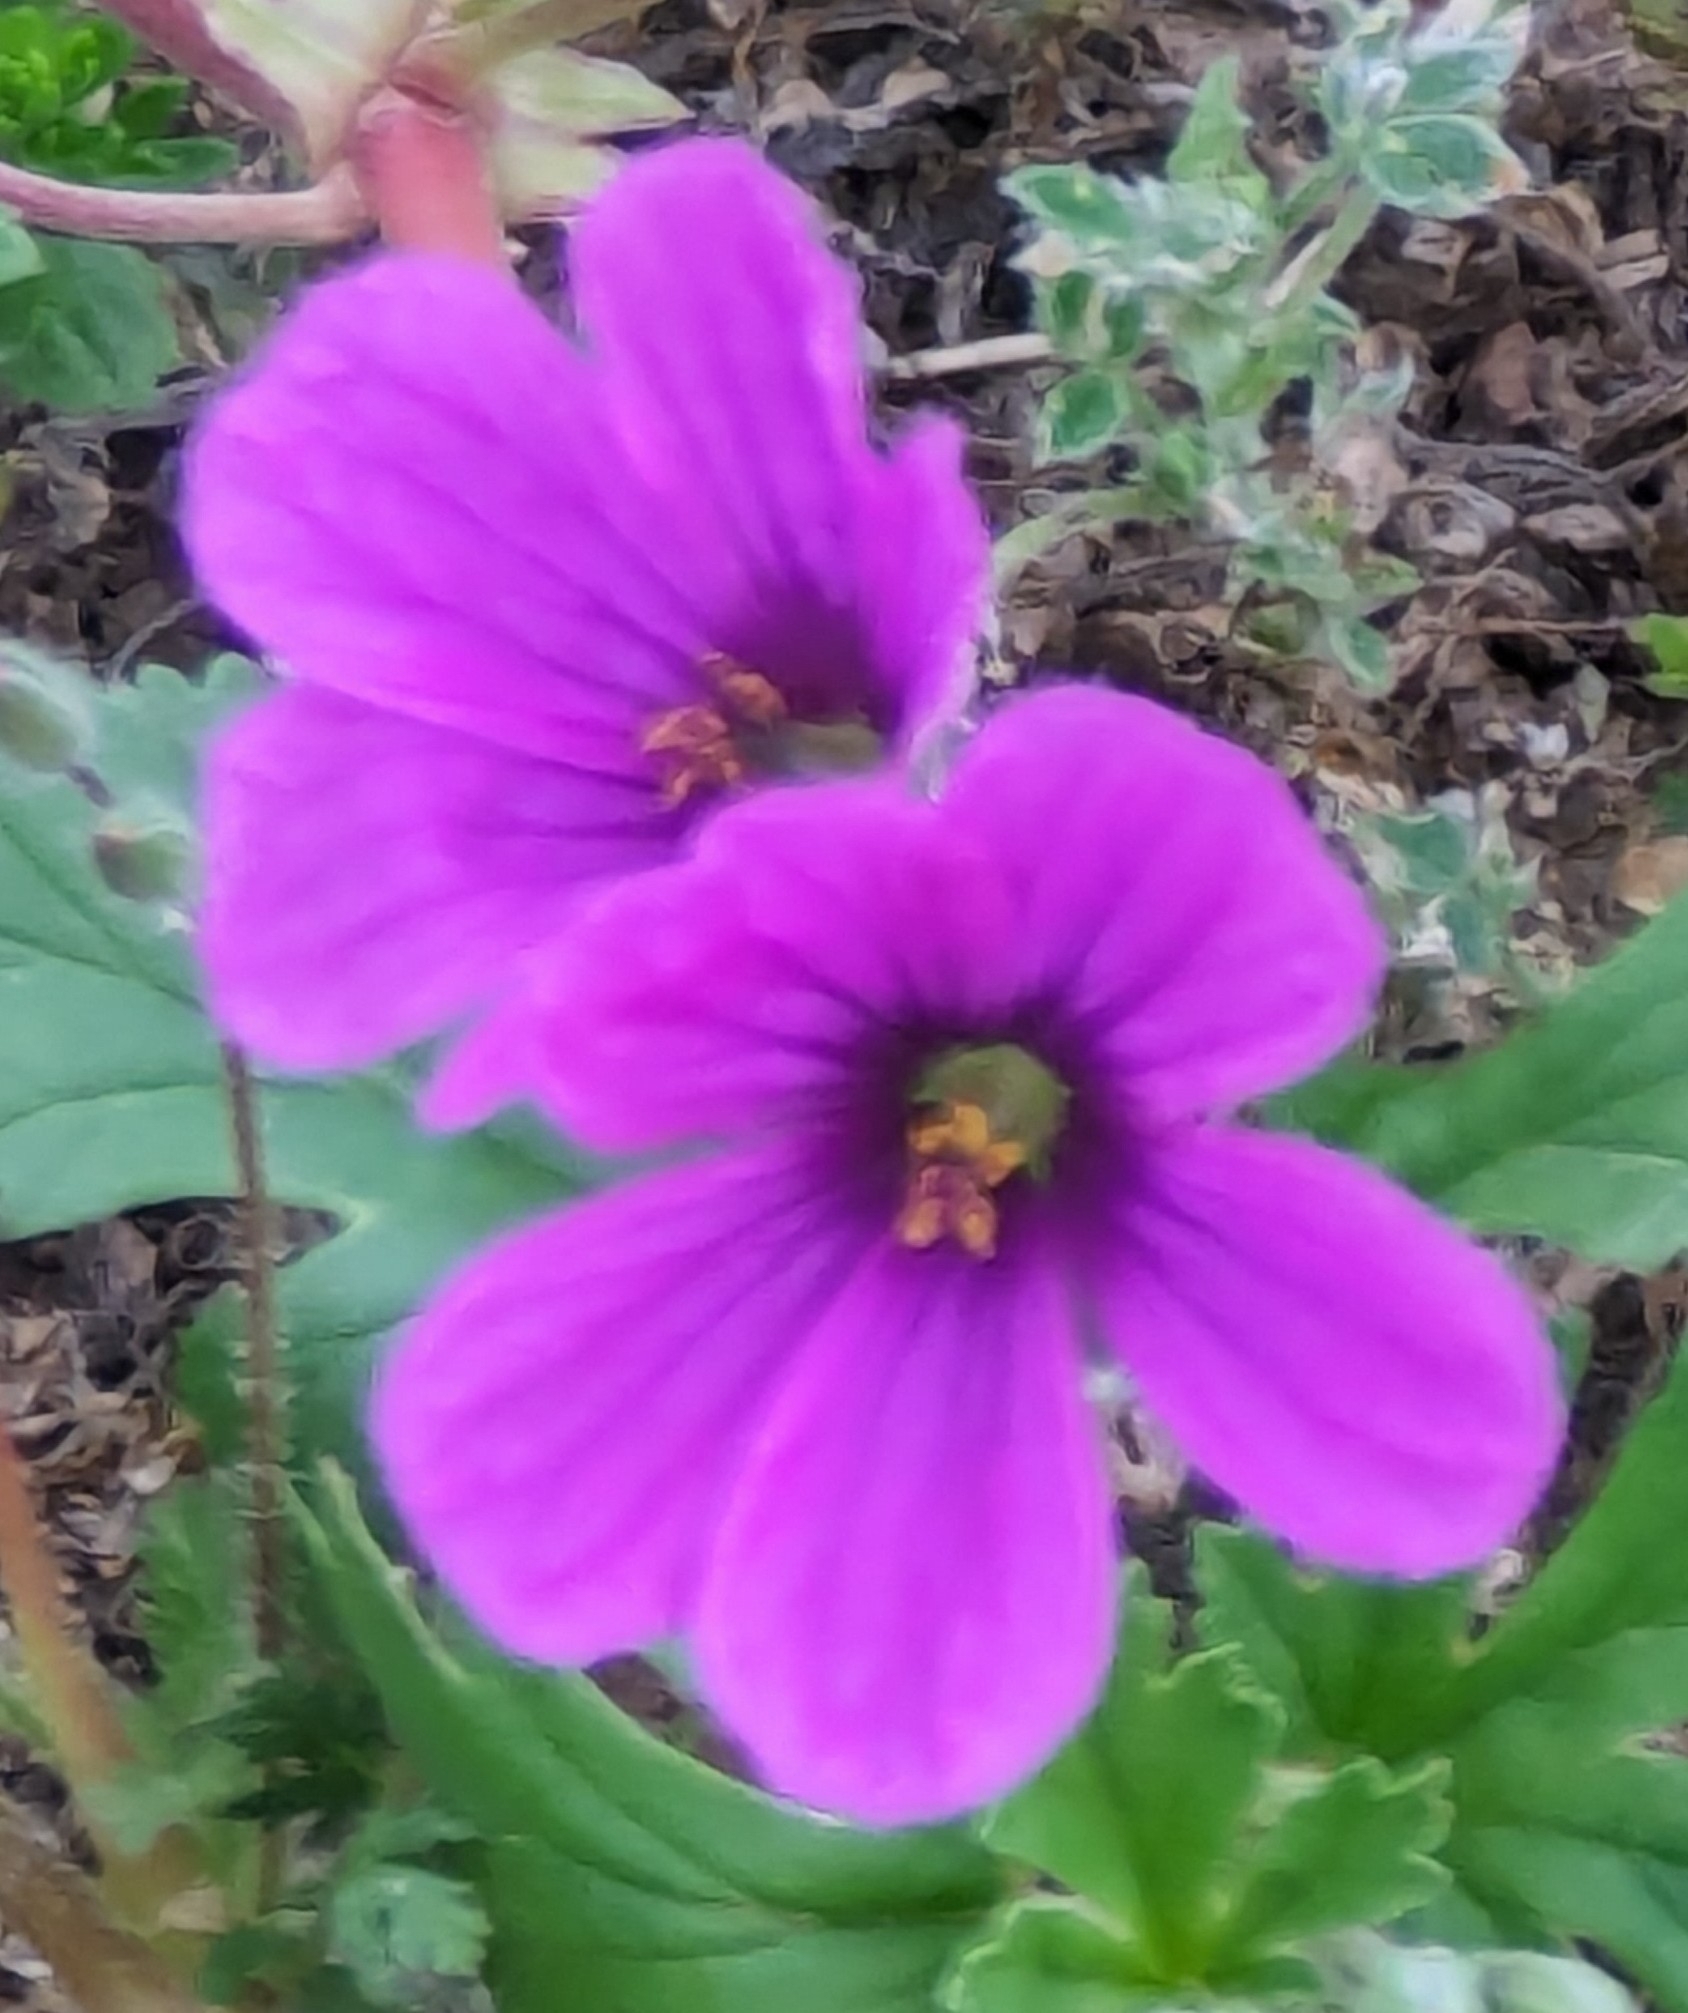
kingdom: Plantae
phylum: Tracheophyta
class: Magnoliopsida
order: Geraniales
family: Geraniaceae
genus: Erodium
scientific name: Erodium texanum
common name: Texas stork's-bill
